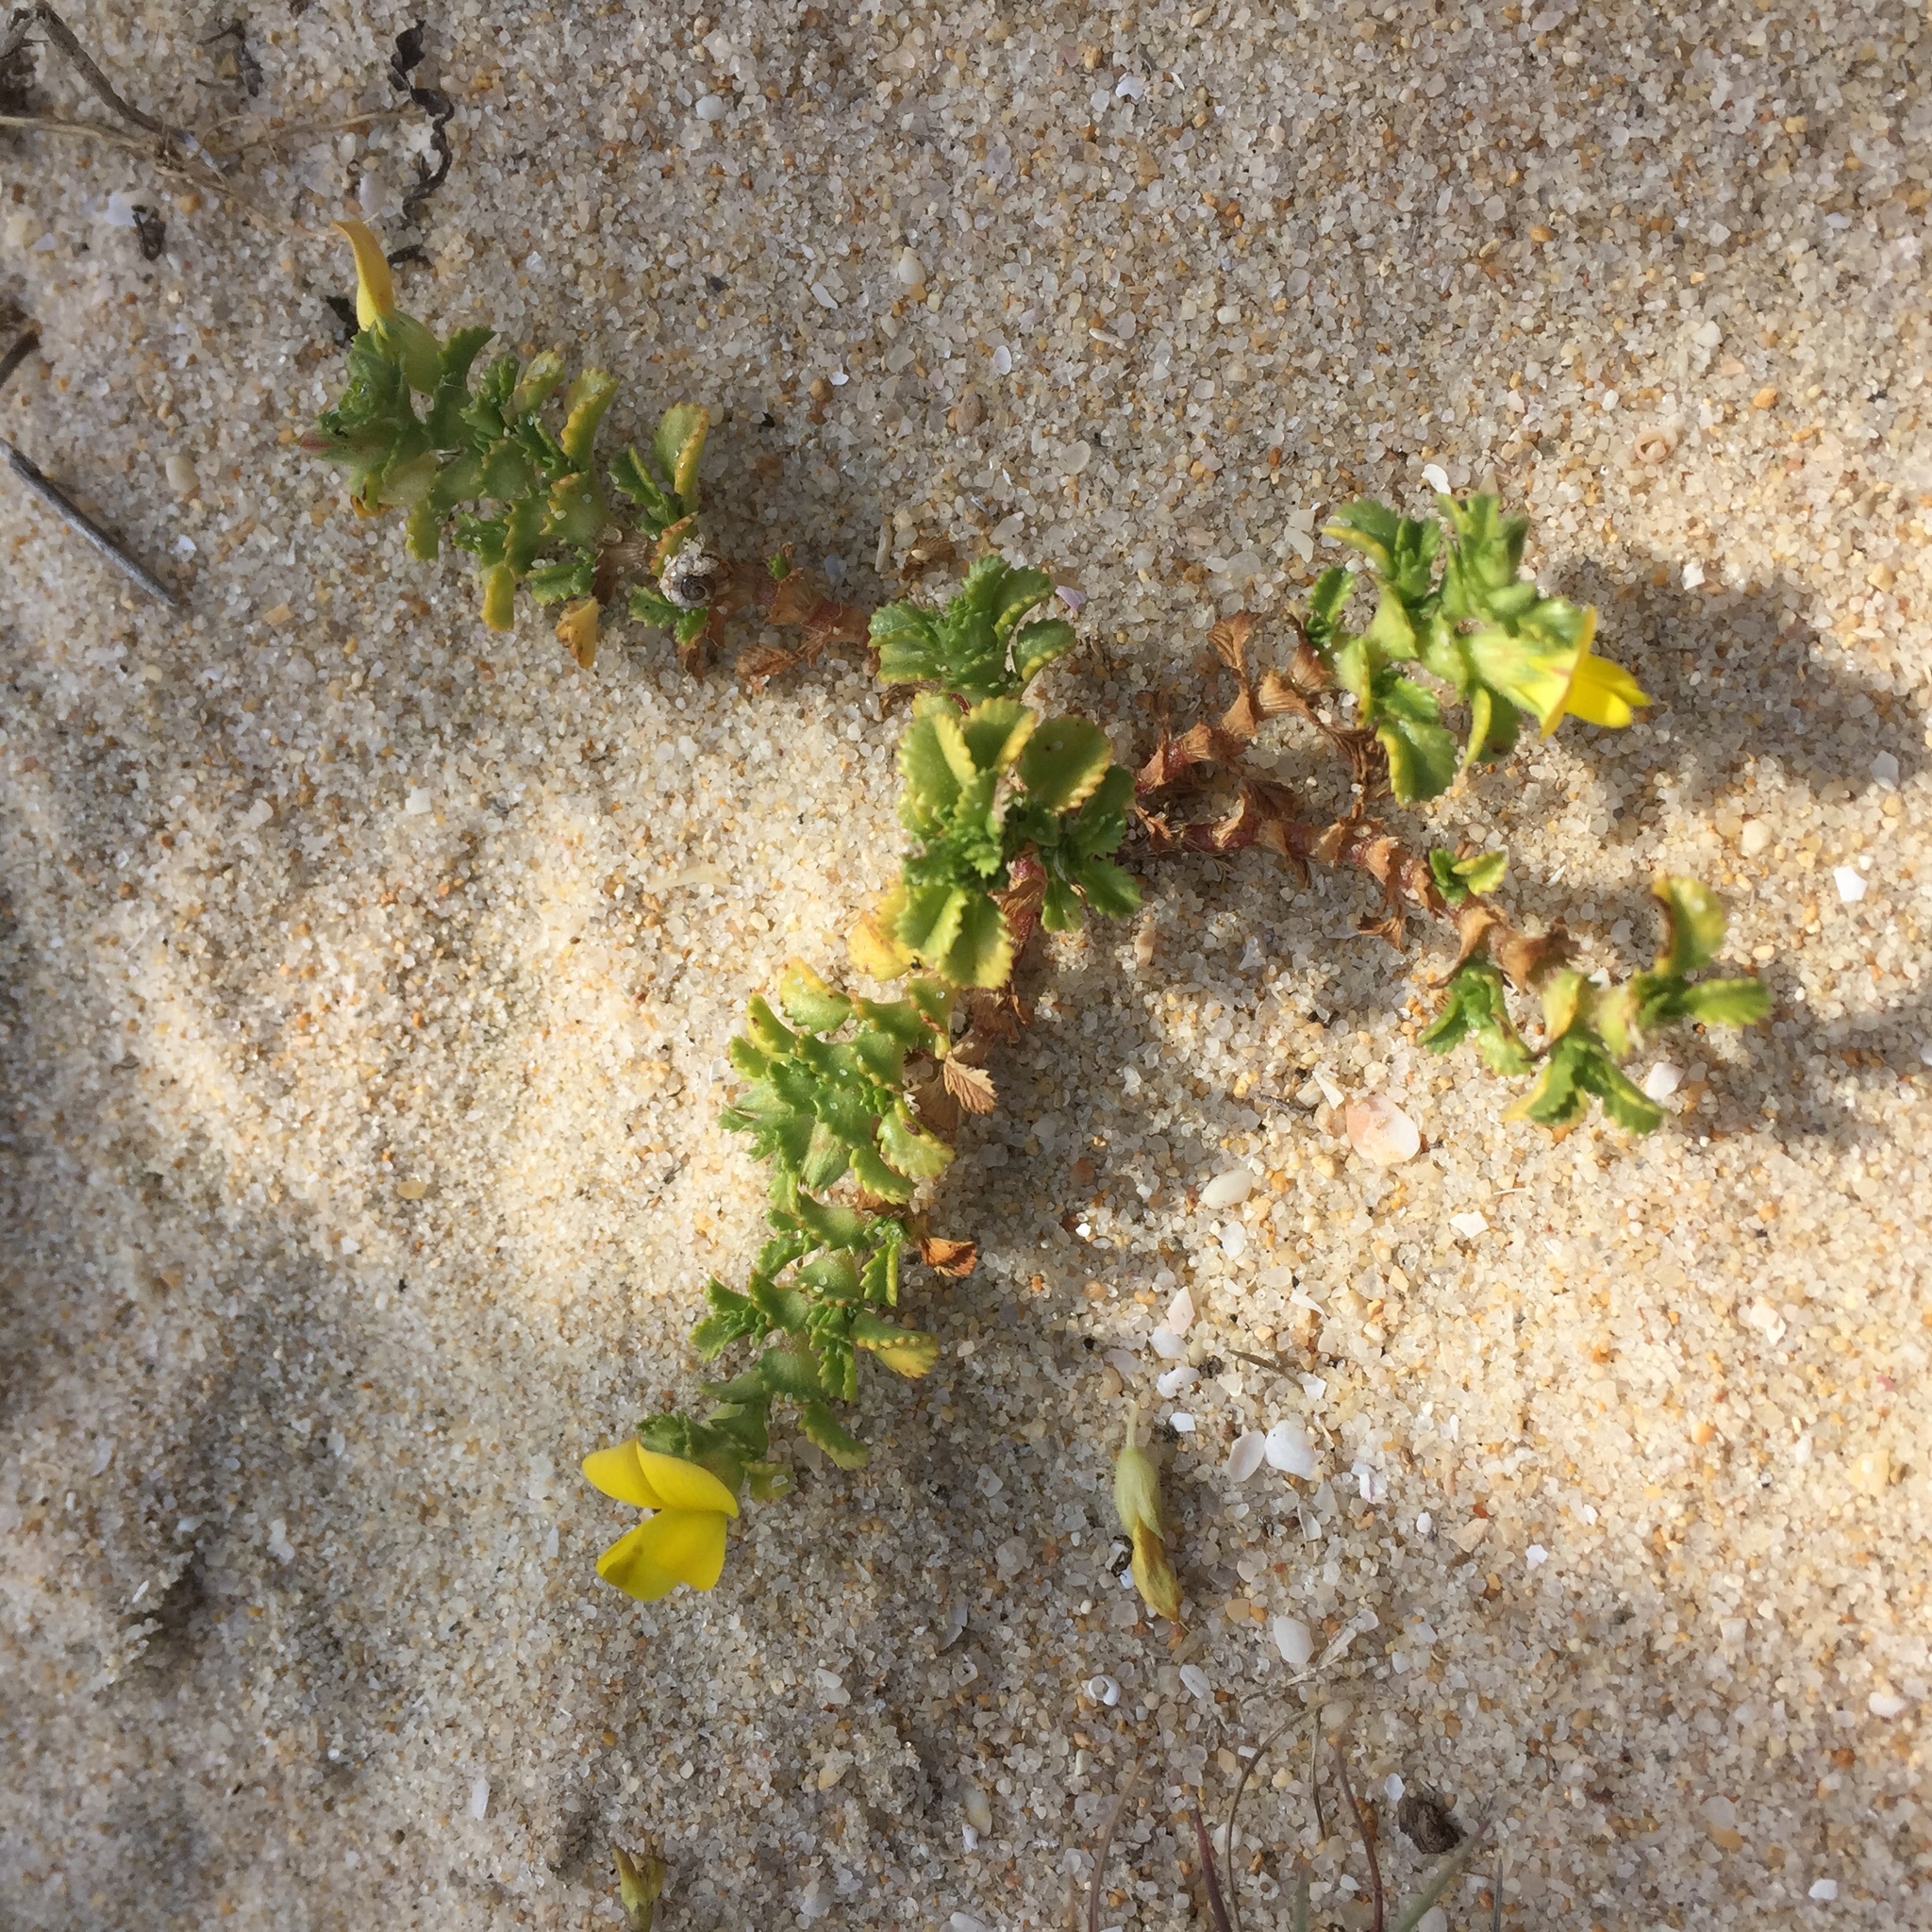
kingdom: Plantae
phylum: Tracheophyta
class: Magnoliopsida
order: Fabales
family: Fabaceae
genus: Ononis
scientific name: Ononis variegata
